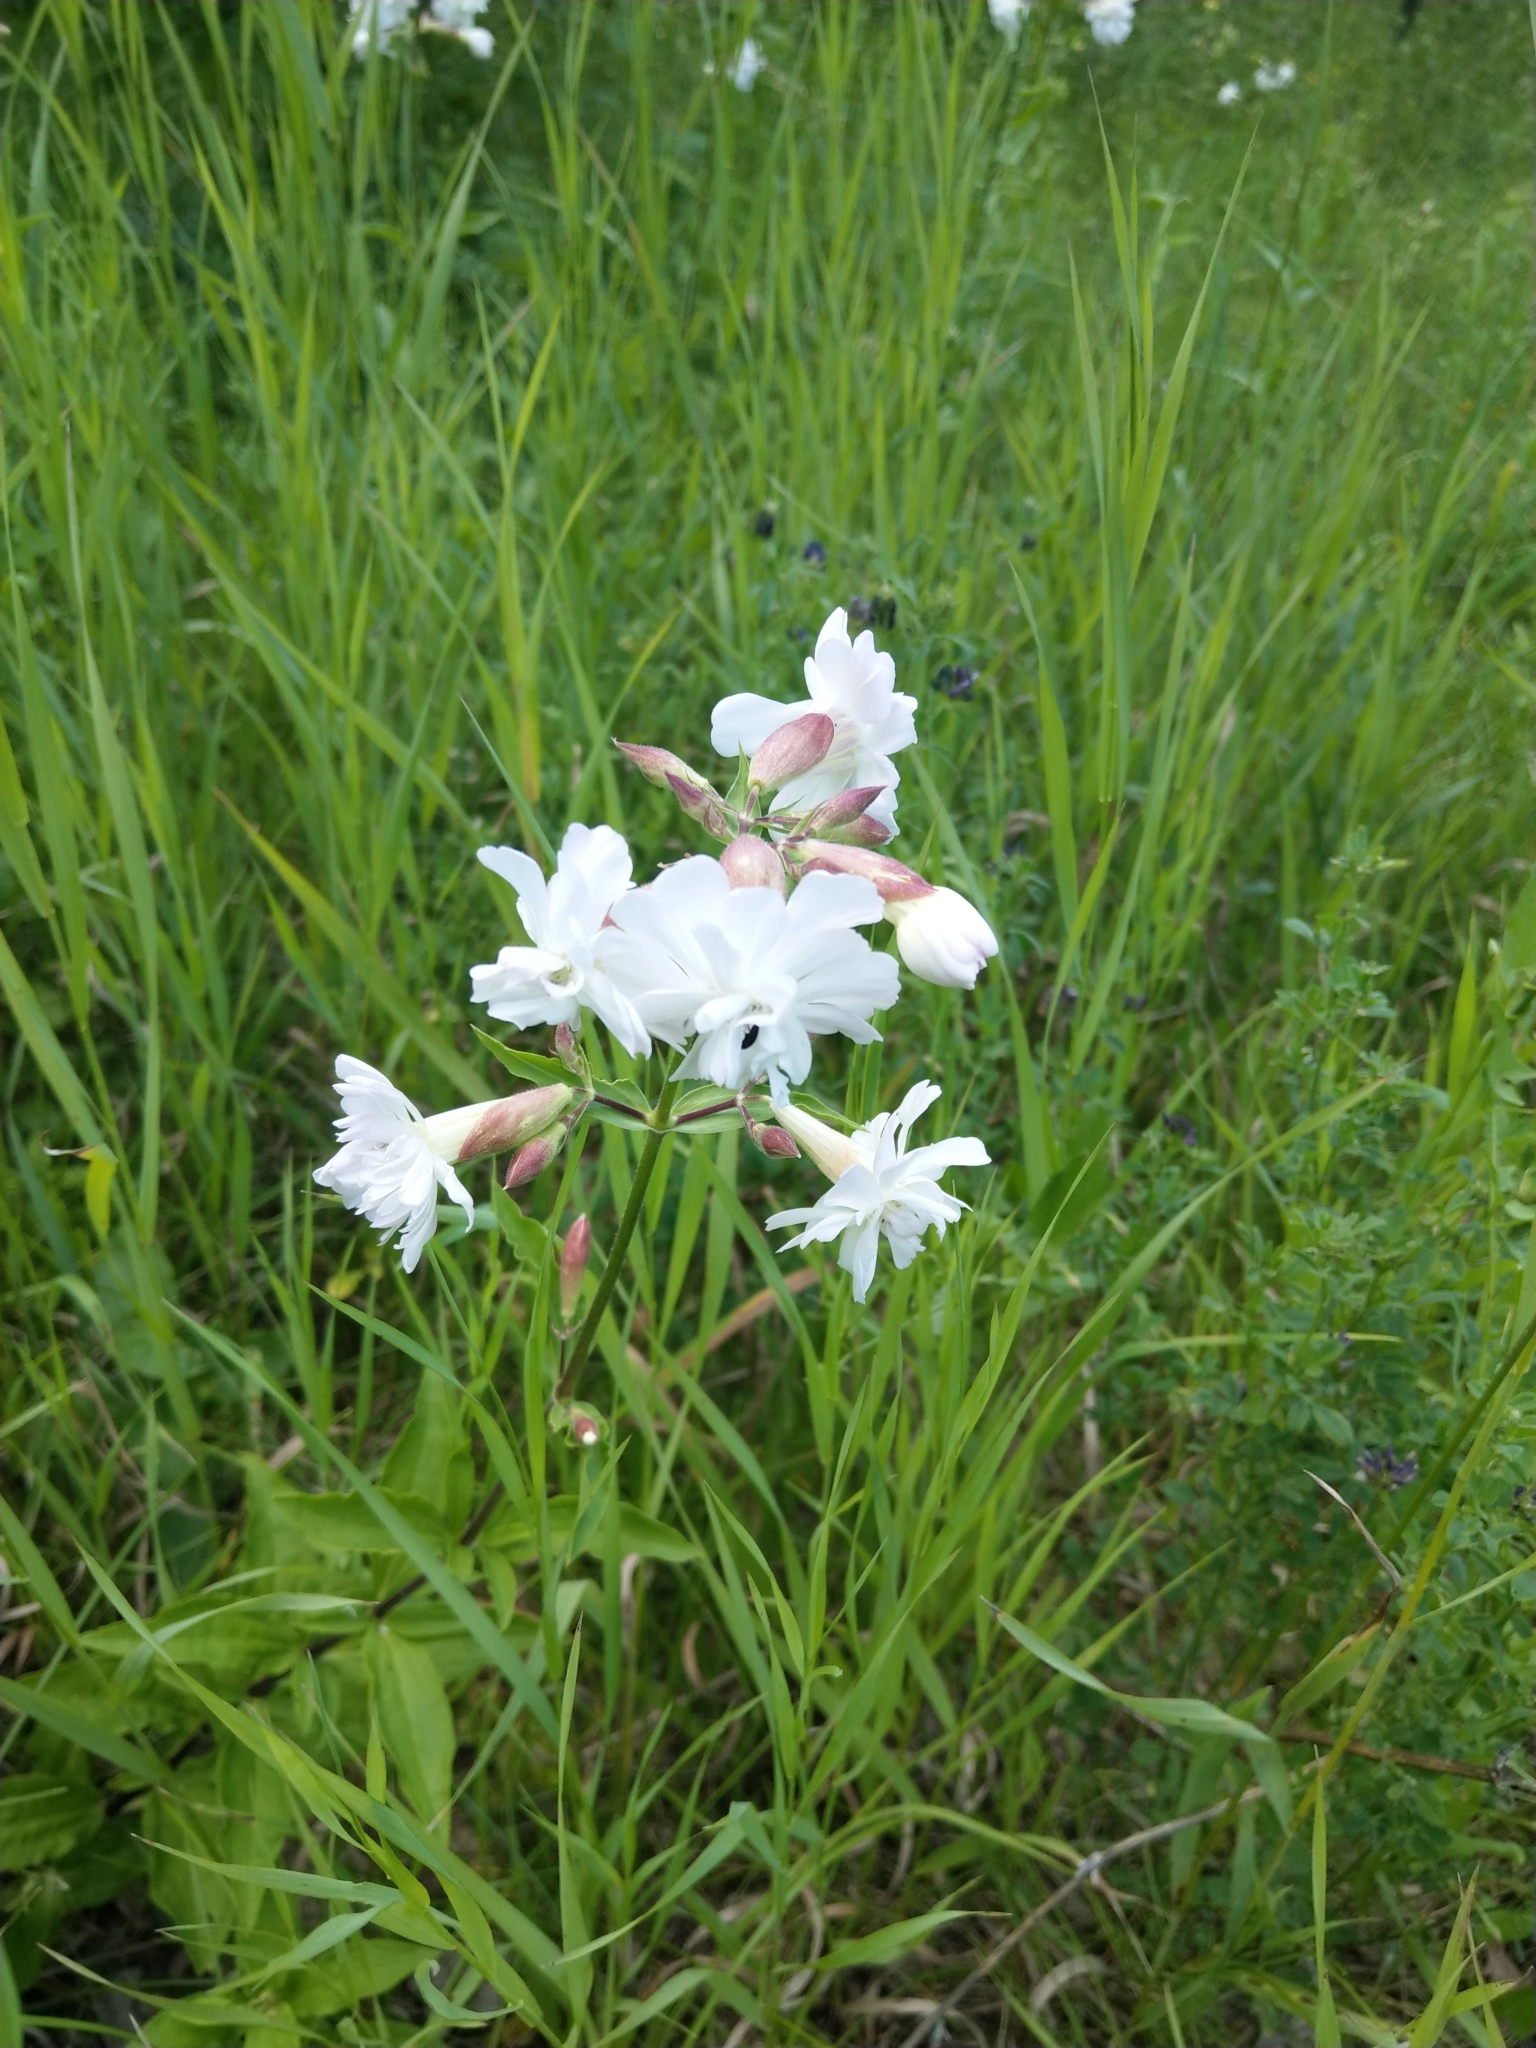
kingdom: Plantae
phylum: Tracheophyta
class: Magnoliopsida
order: Caryophyllales
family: Caryophyllaceae
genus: Saponaria
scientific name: Saponaria officinalis
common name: Soapwort
